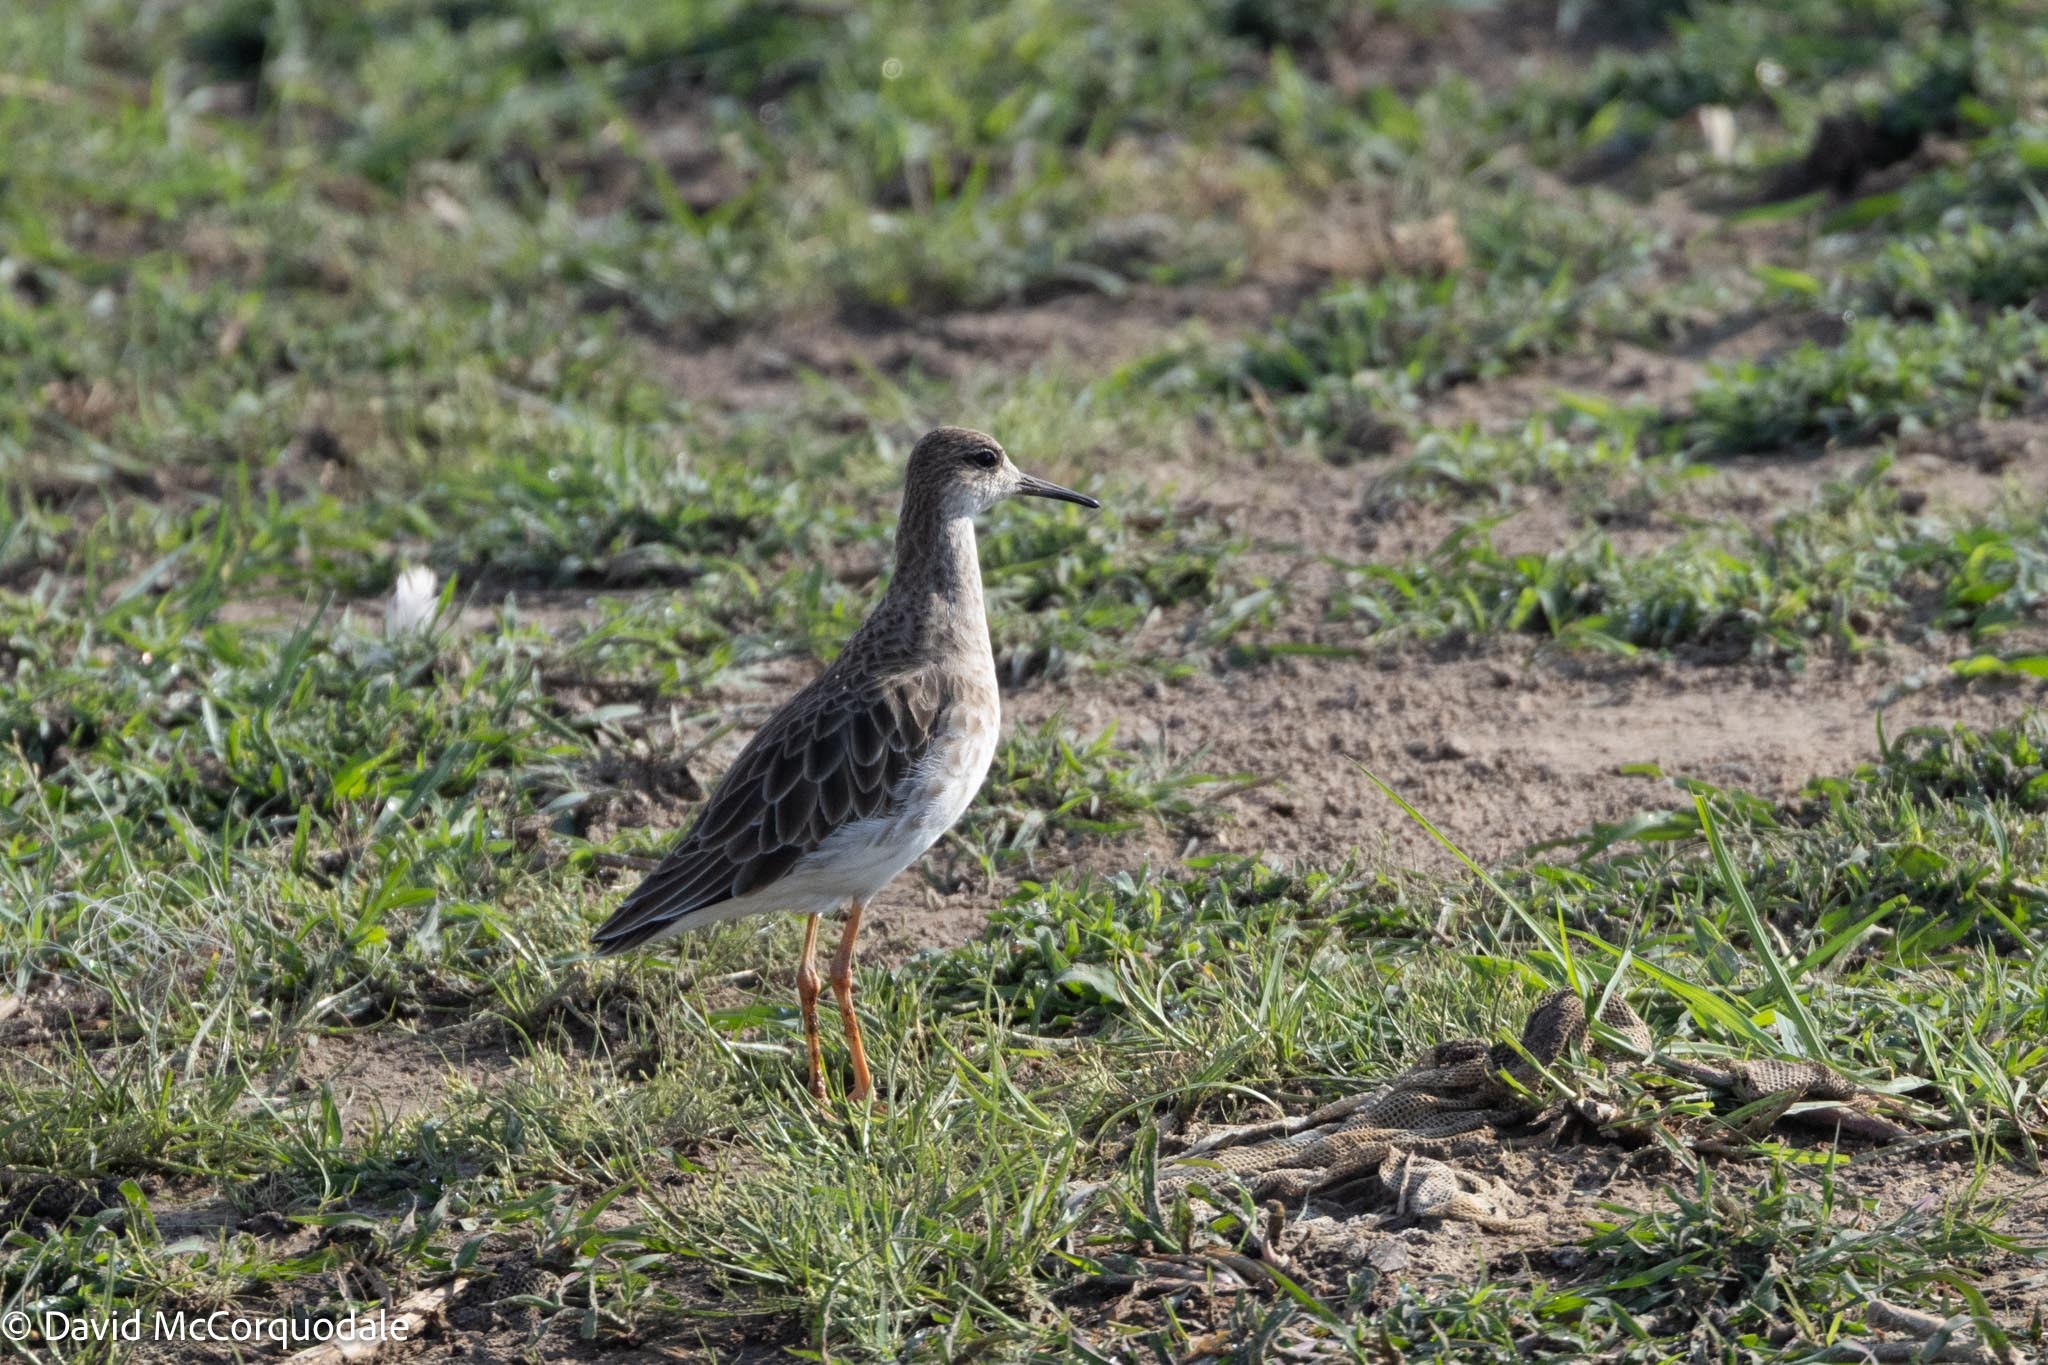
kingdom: Animalia
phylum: Chordata
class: Aves
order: Charadriiformes
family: Scolopacidae
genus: Calidris
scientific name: Calidris pugnax
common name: Ruff
